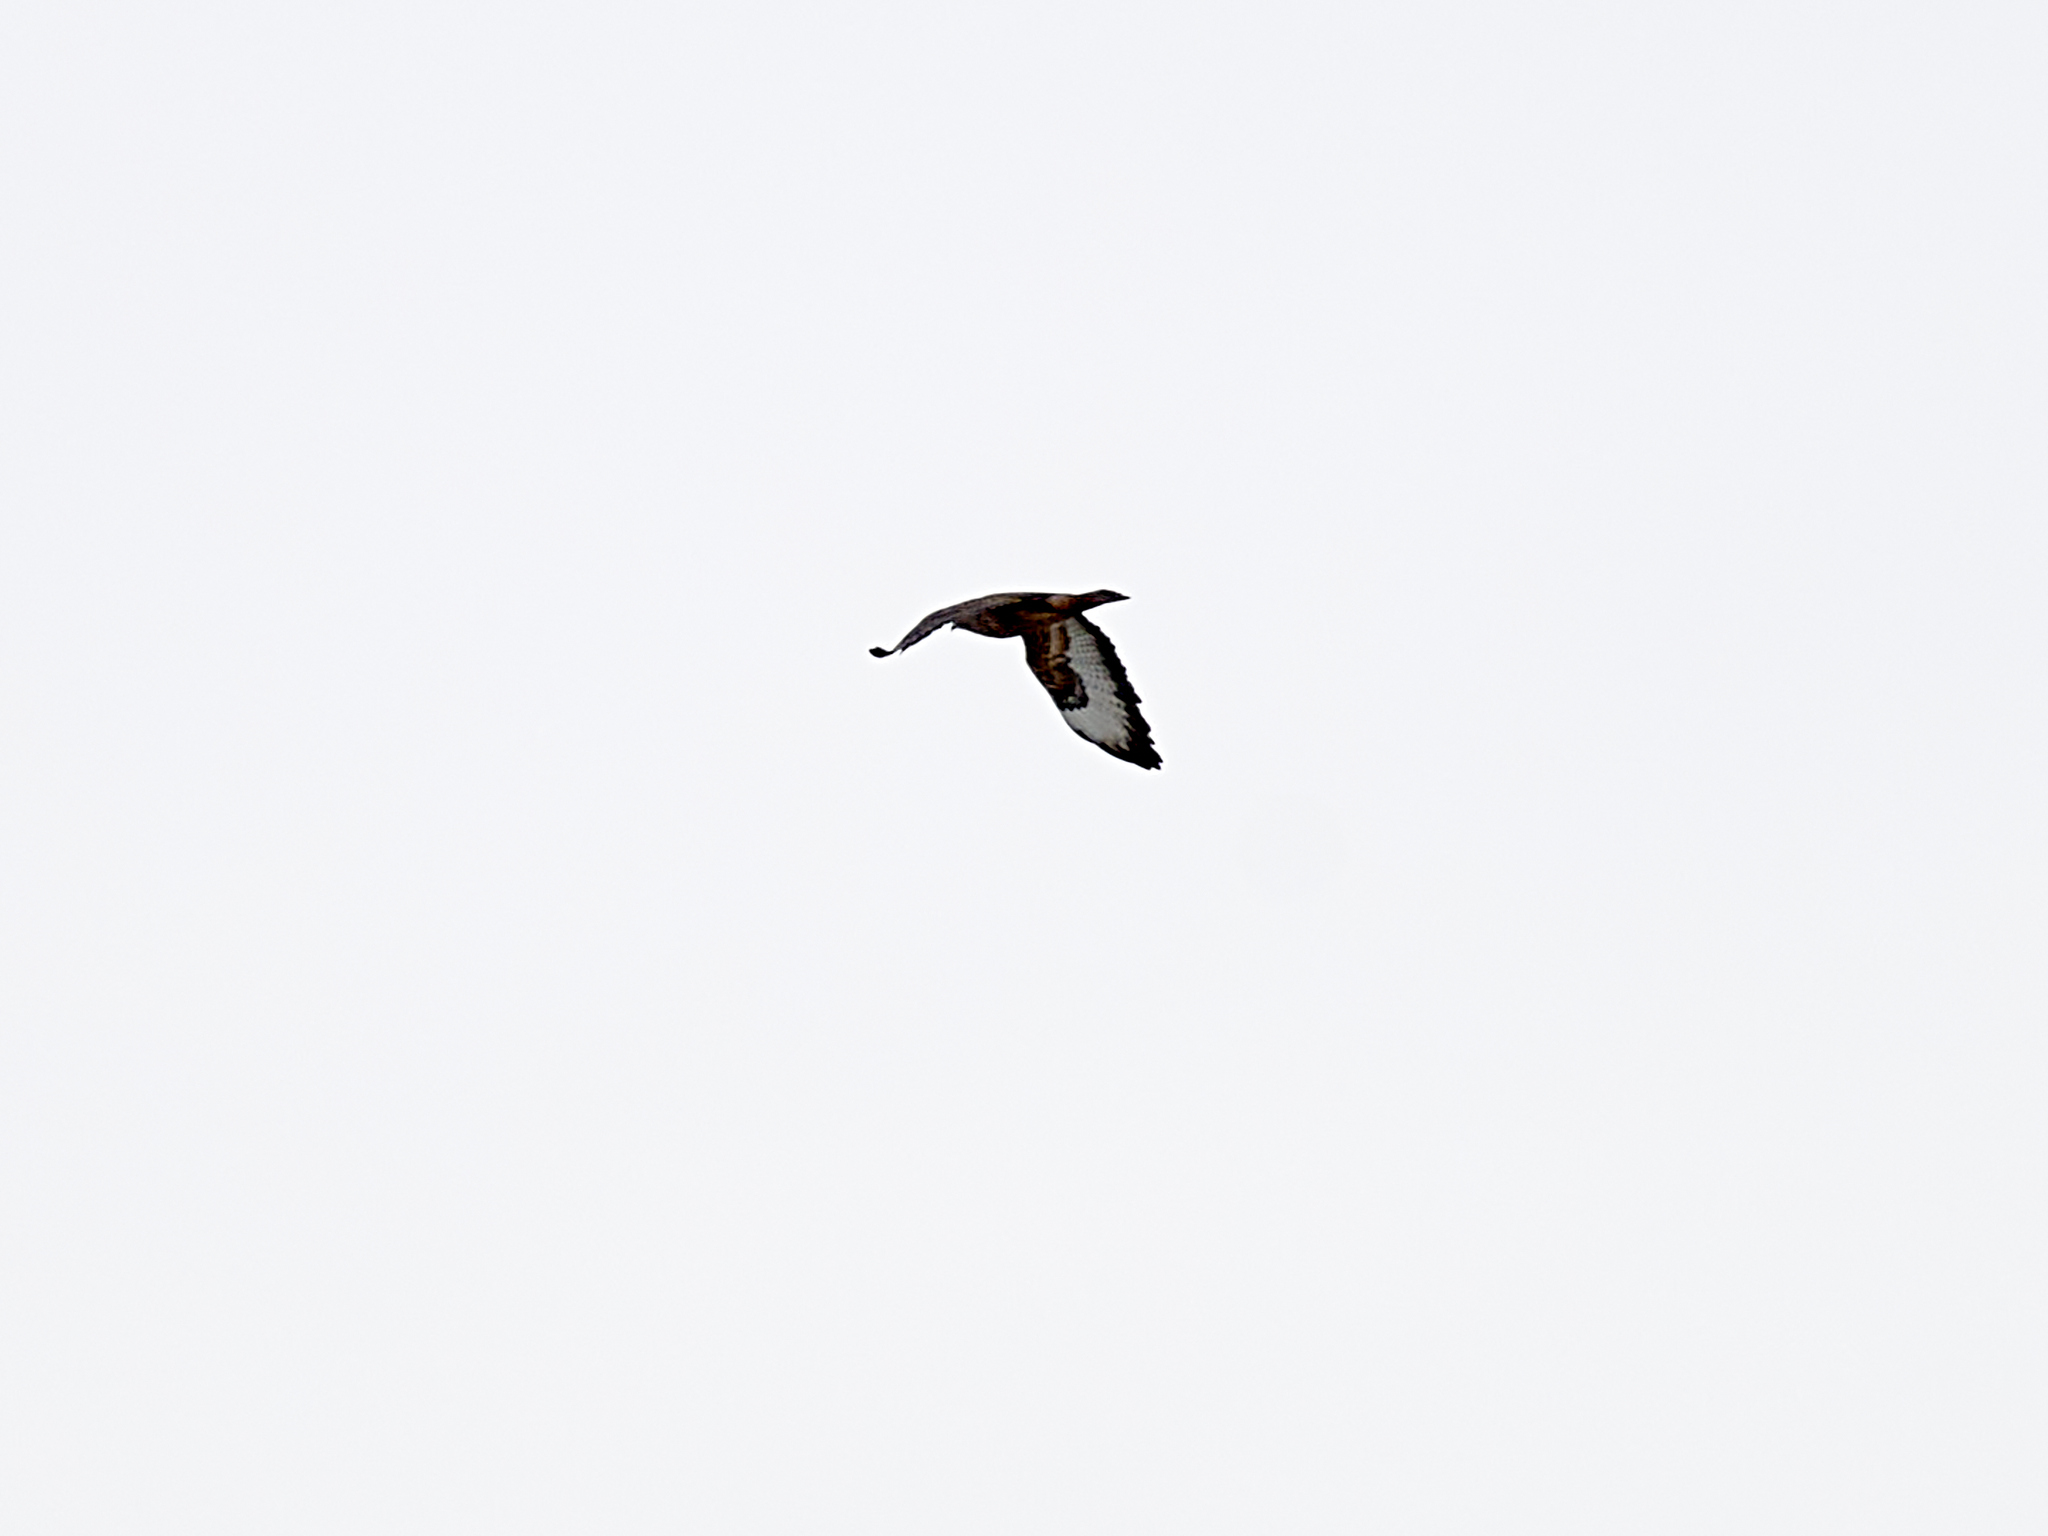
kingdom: Animalia
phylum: Chordata
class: Aves
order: Accipitriformes
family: Accipitridae
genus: Buteo
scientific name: Buteo buteo
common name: Common buzzard
